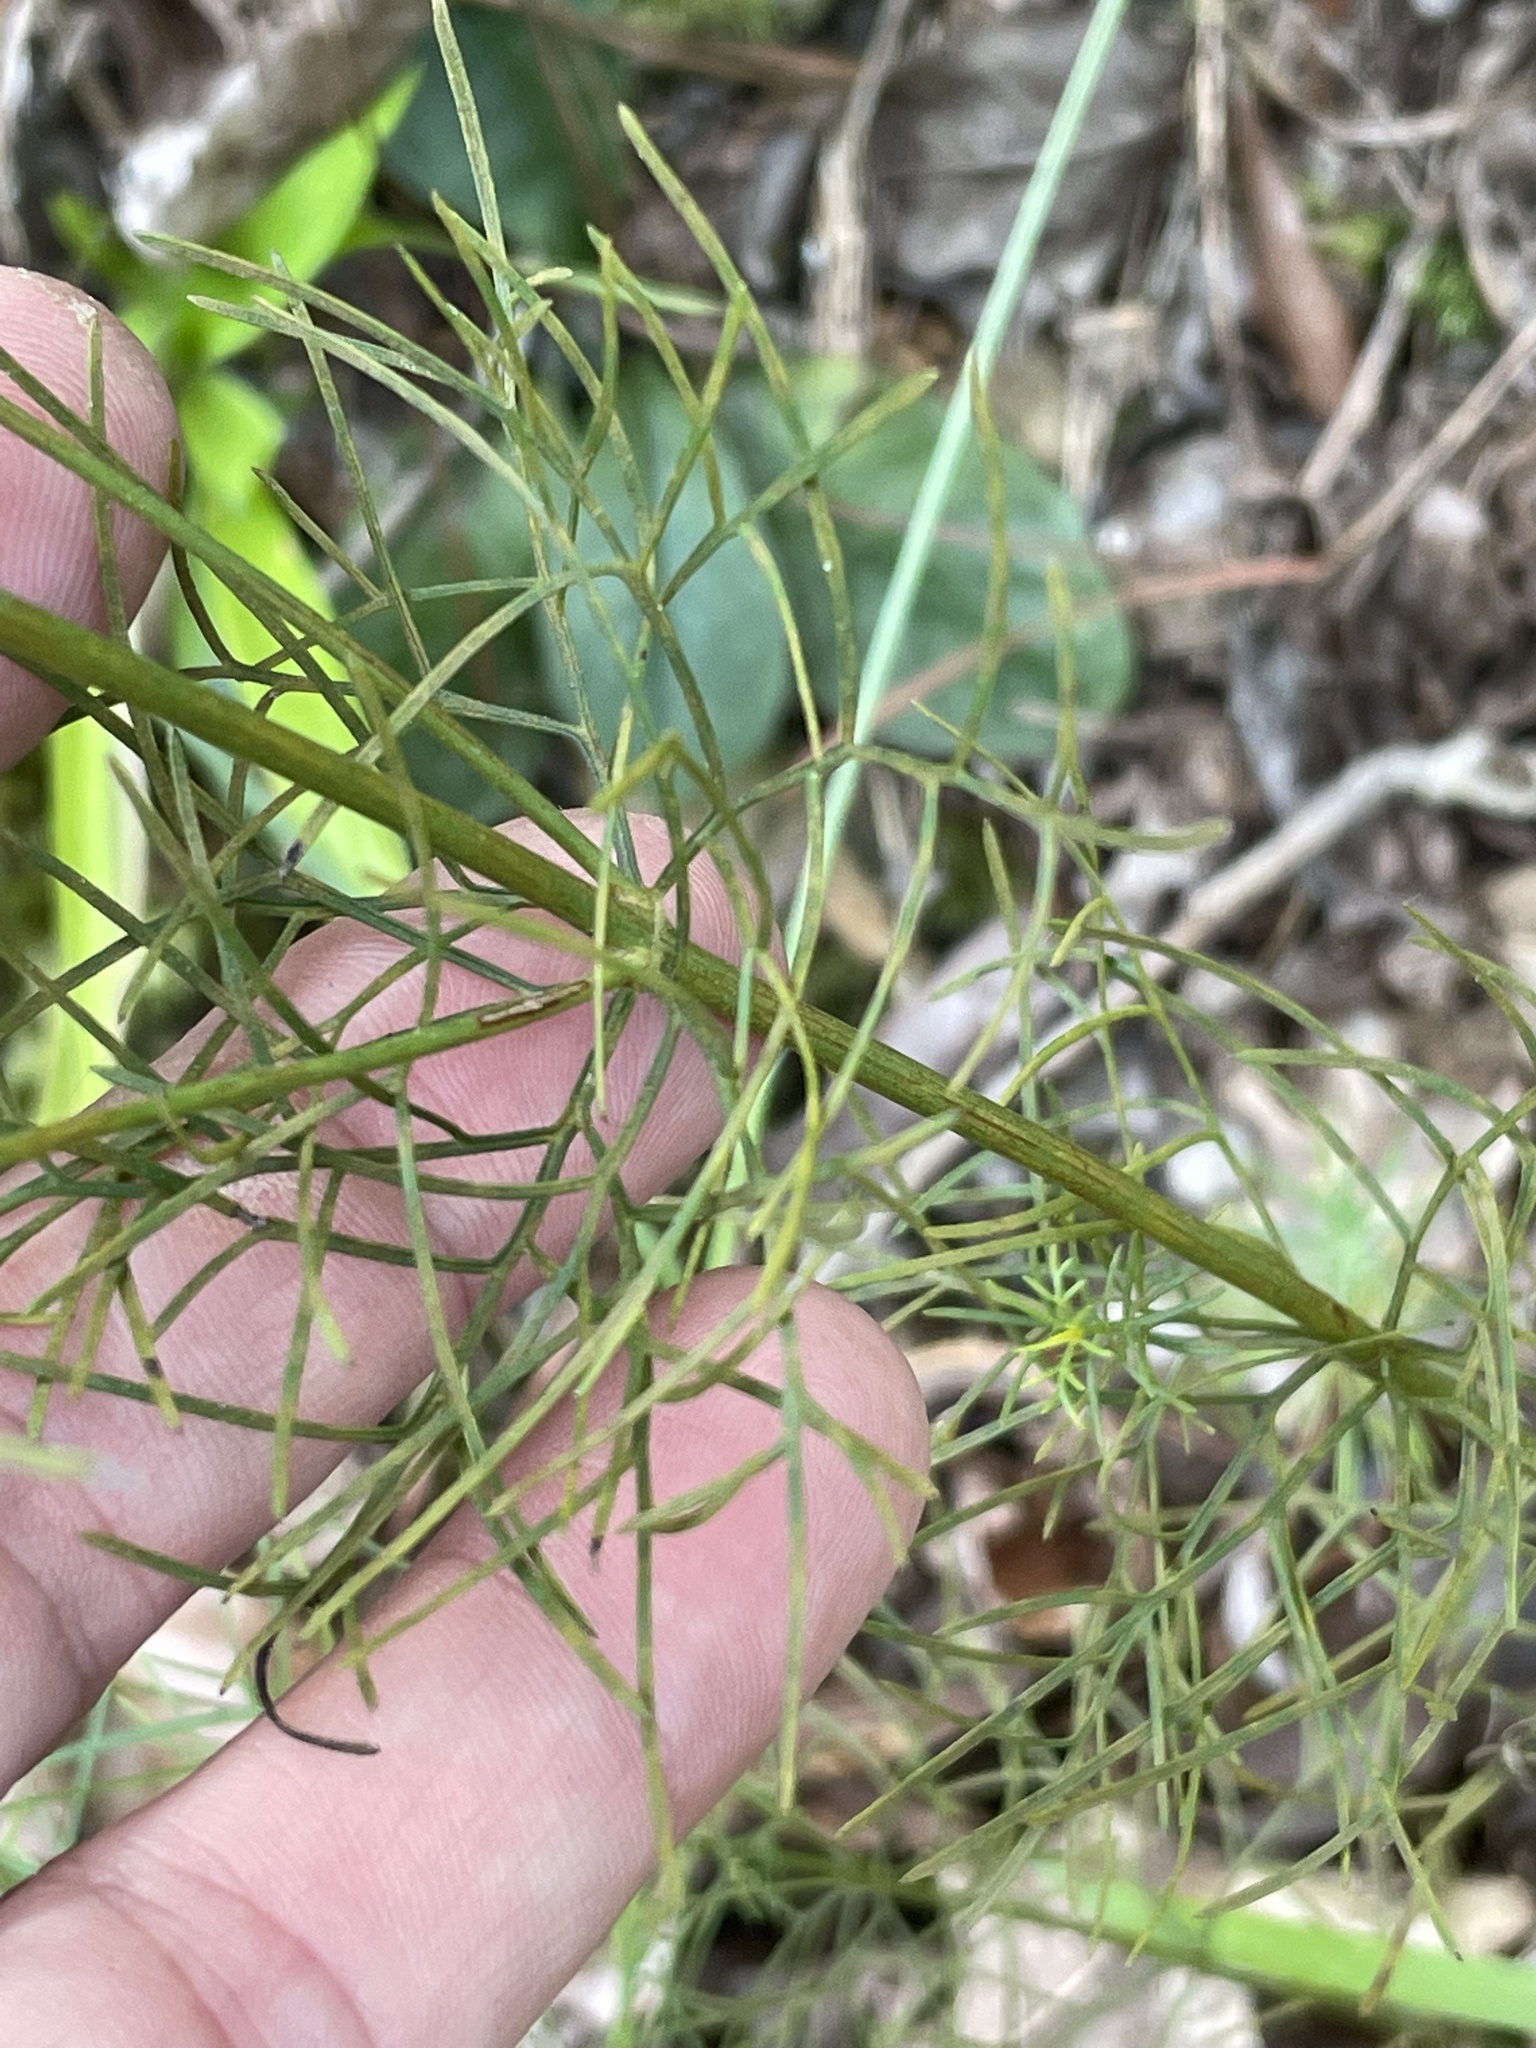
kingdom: Plantae
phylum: Tracheophyta
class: Magnoliopsida
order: Asterales
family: Asteraceae
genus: Coreopsis
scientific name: Coreopsis verticillata
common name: Whorled tickseed
